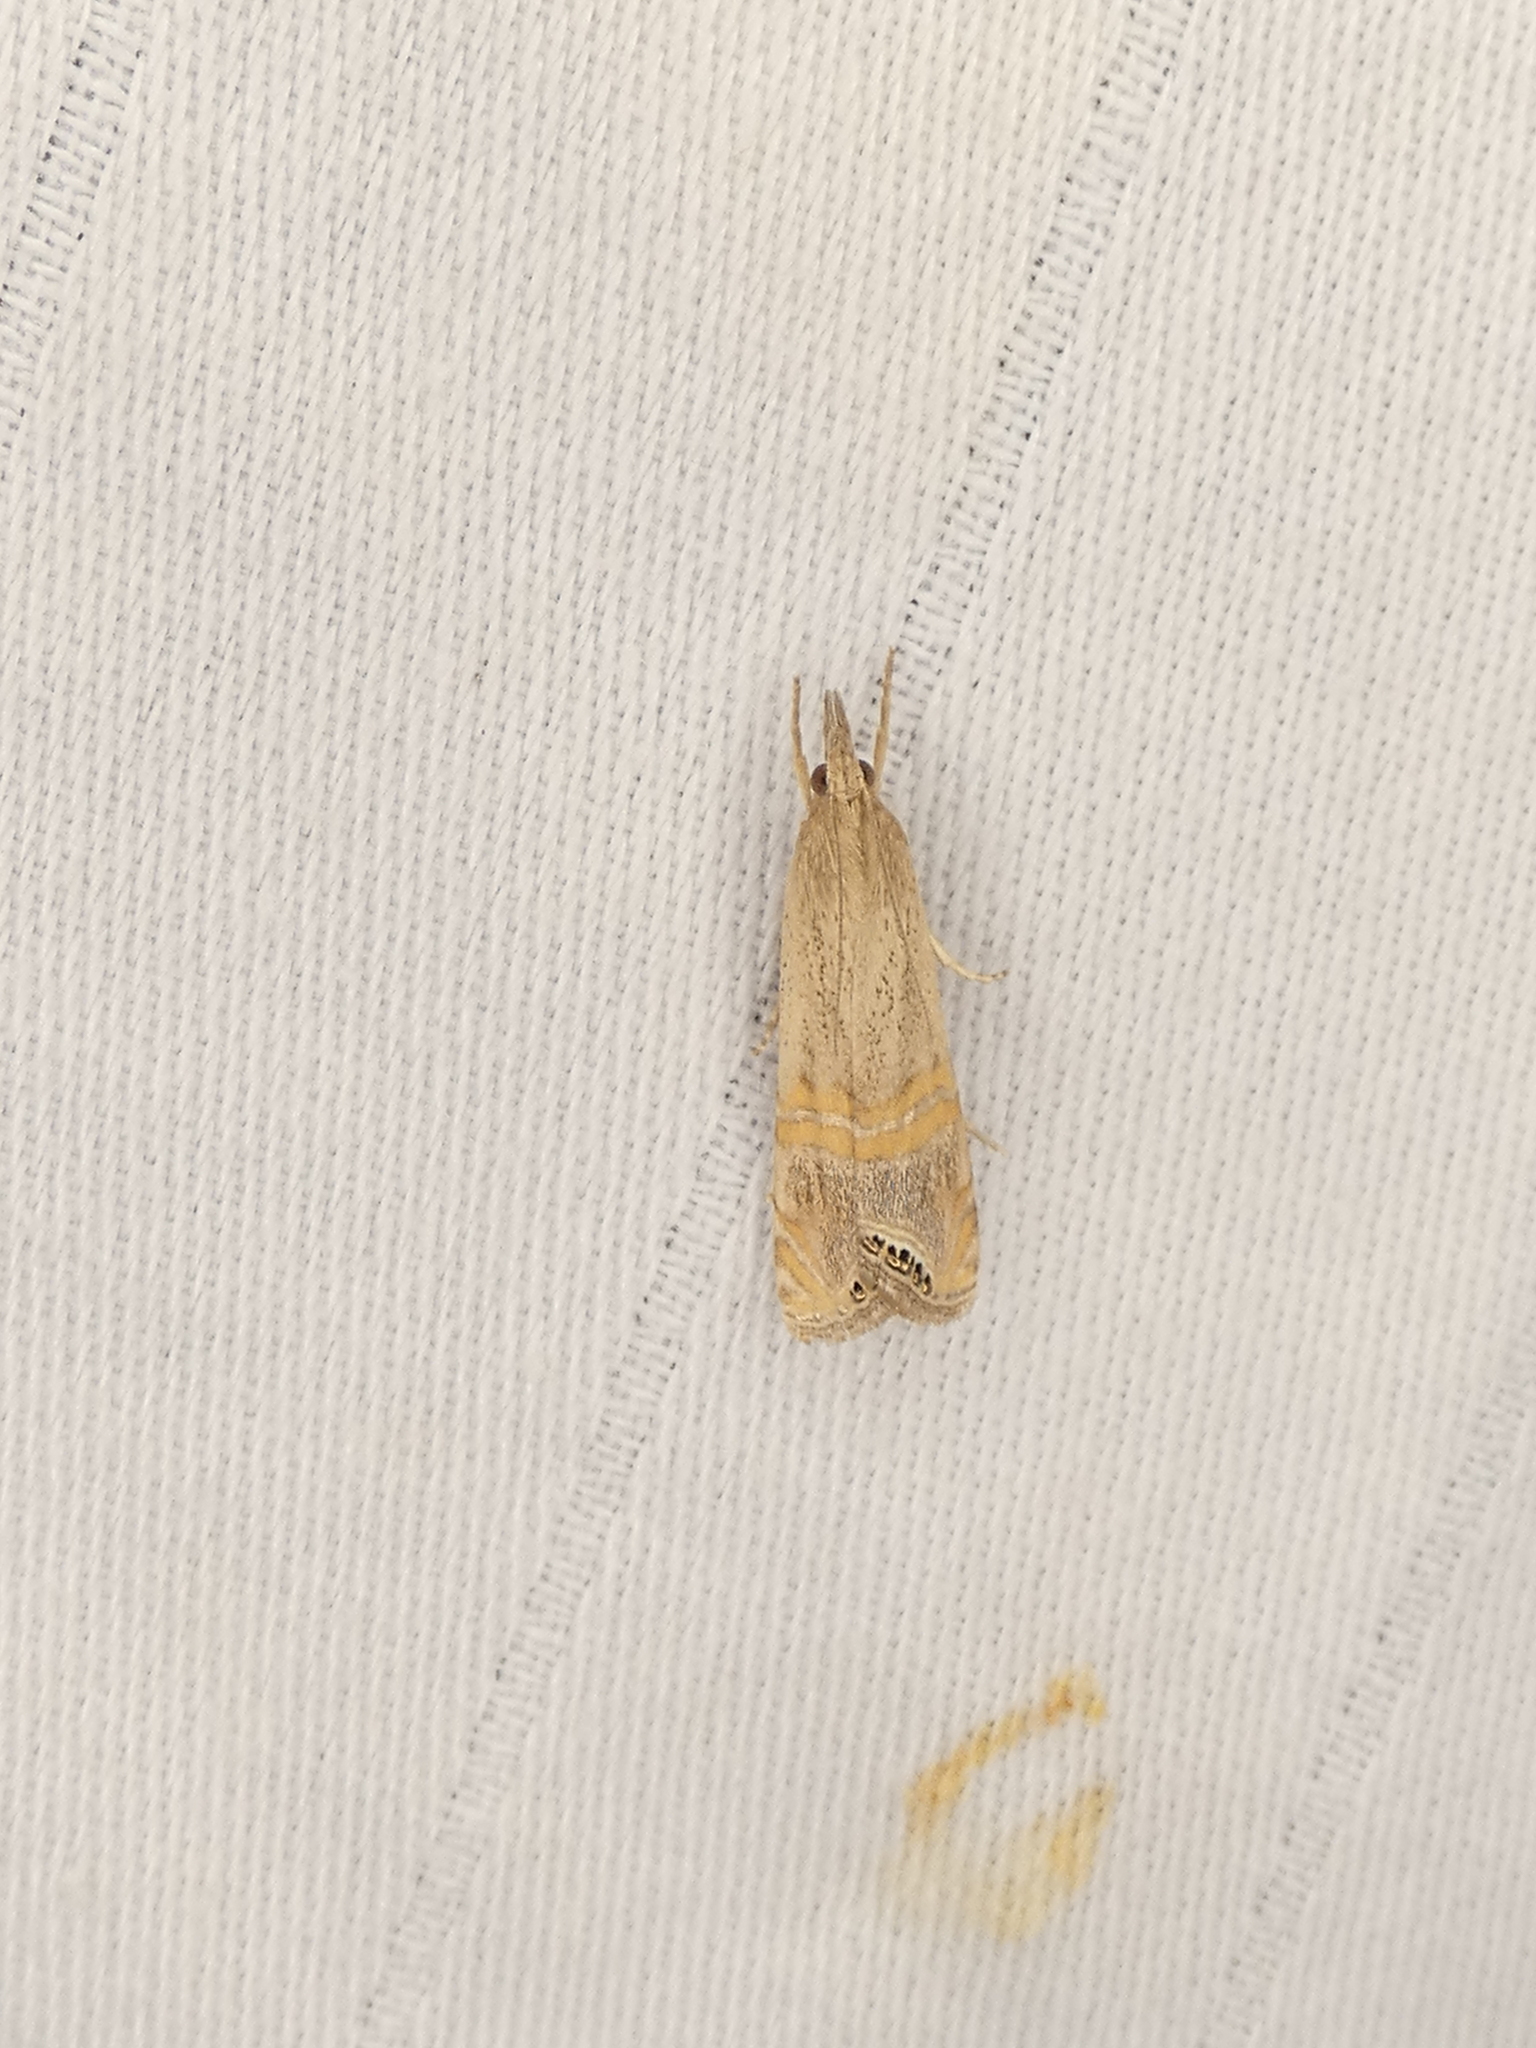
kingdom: Animalia
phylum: Arthropoda
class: Insecta
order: Lepidoptera
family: Crambidae
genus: Euchromius
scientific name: Euchromius ocellea
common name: Necklace veneer moth
